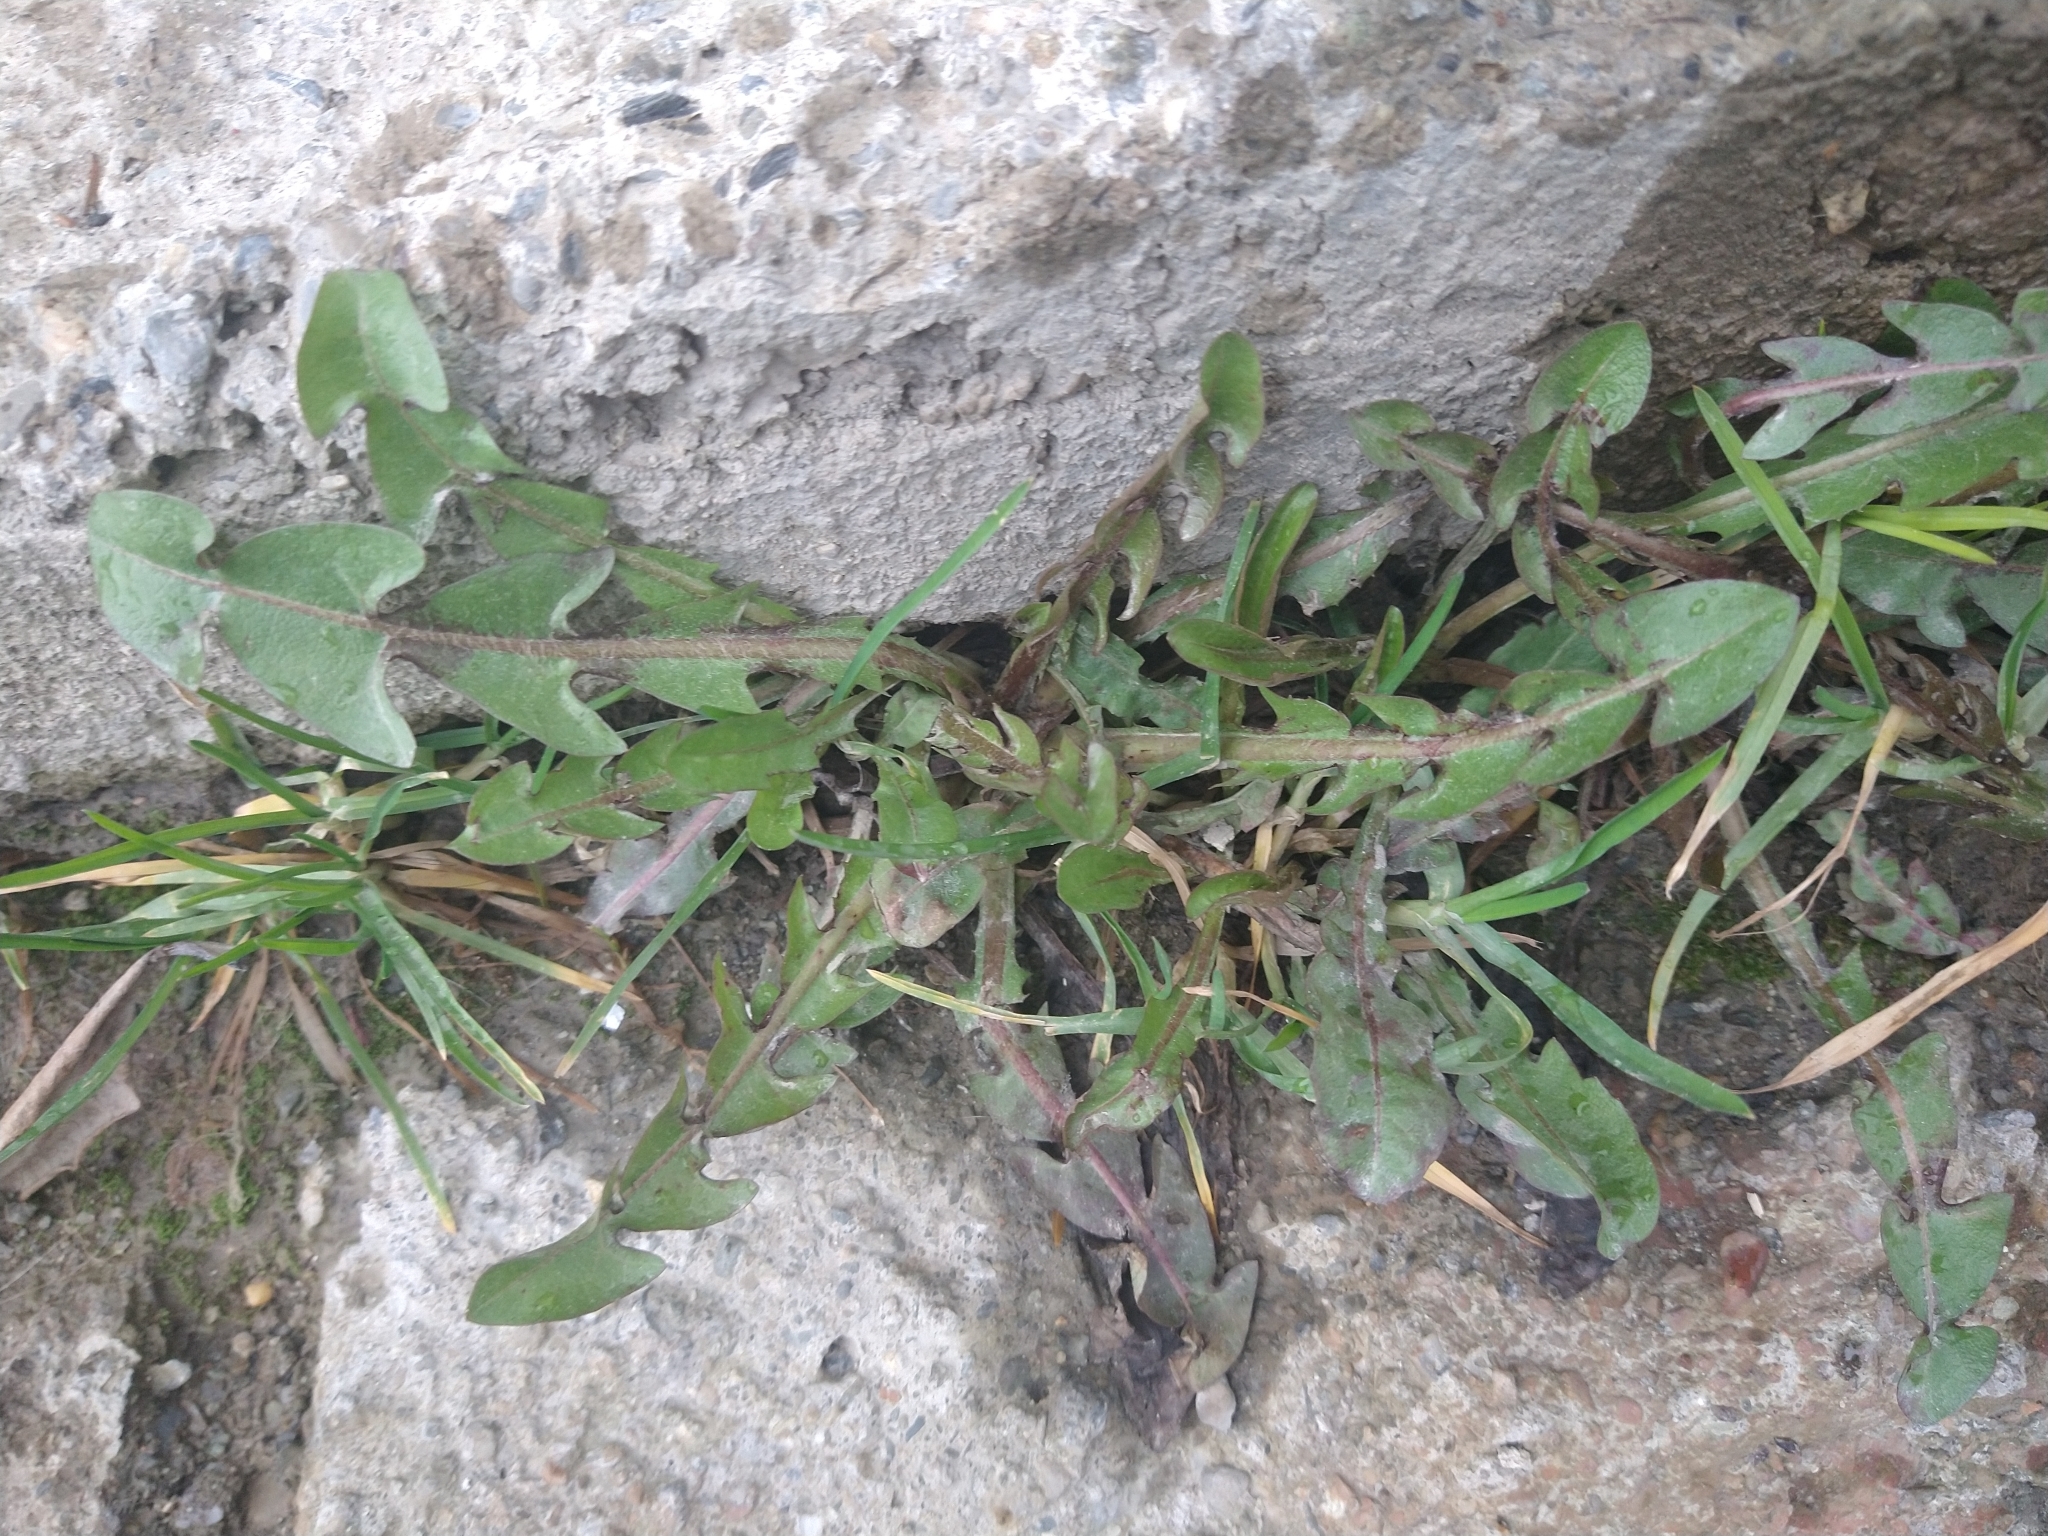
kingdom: Plantae
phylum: Tracheophyta
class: Magnoliopsida
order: Asterales
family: Asteraceae
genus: Taraxacum
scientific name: Taraxacum officinale
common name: Common dandelion
